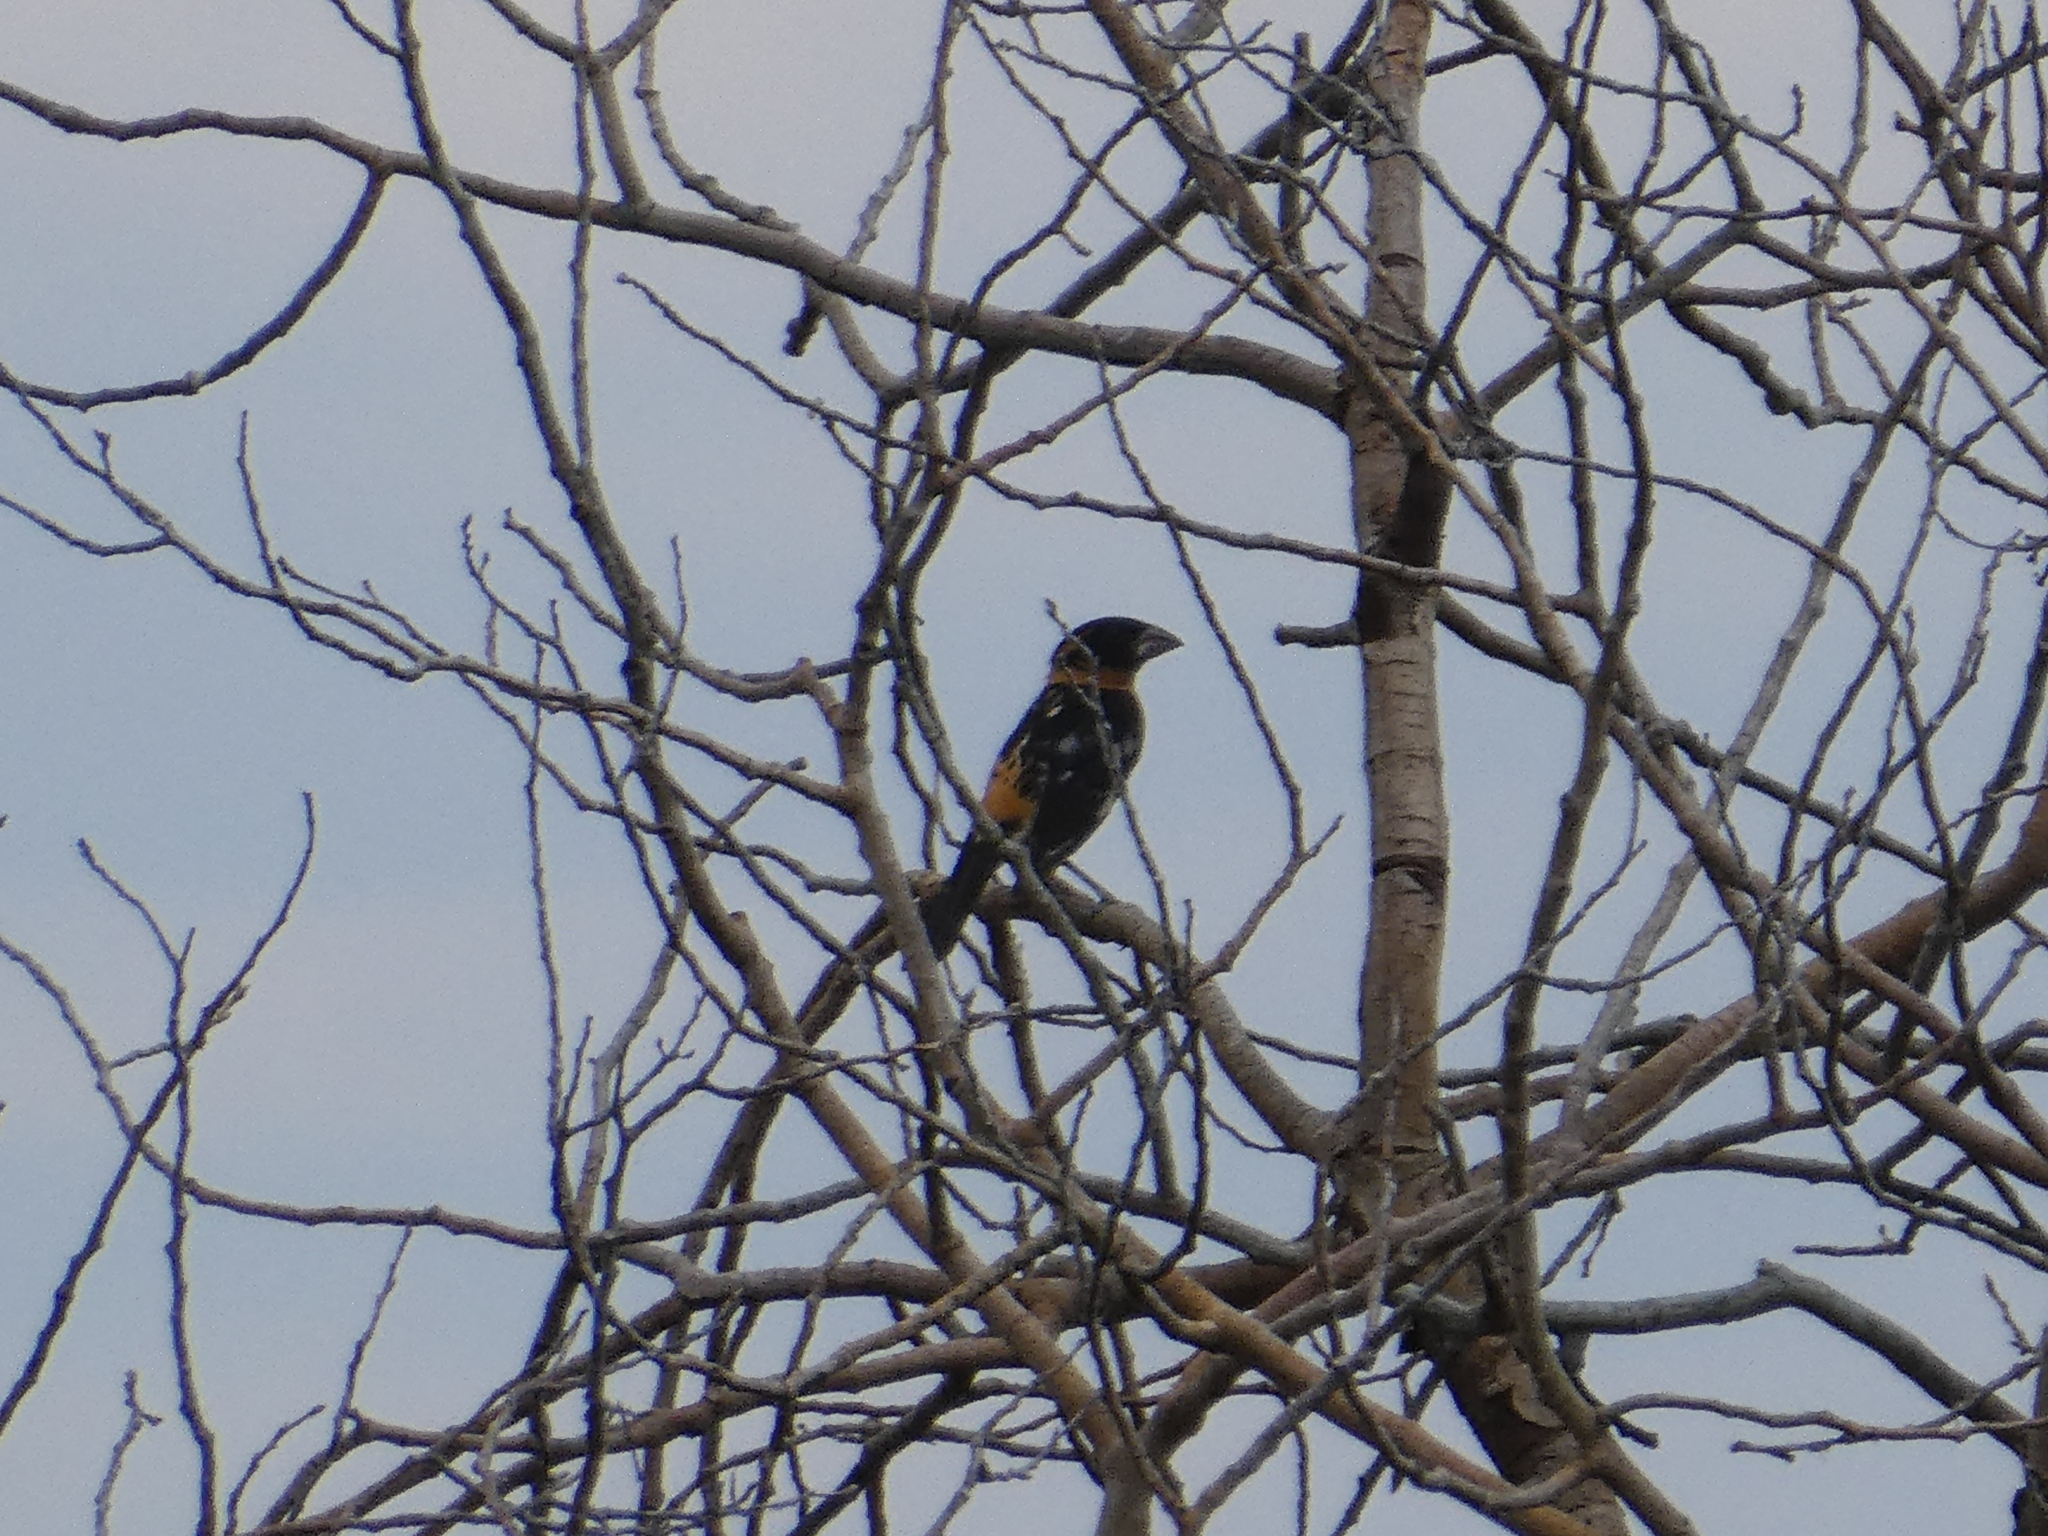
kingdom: Animalia
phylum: Chordata
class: Aves
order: Passeriformes
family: Cardinalidae
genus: Pheucticus
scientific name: Pheucticus melanocephalus
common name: Black-headed grosbeak
